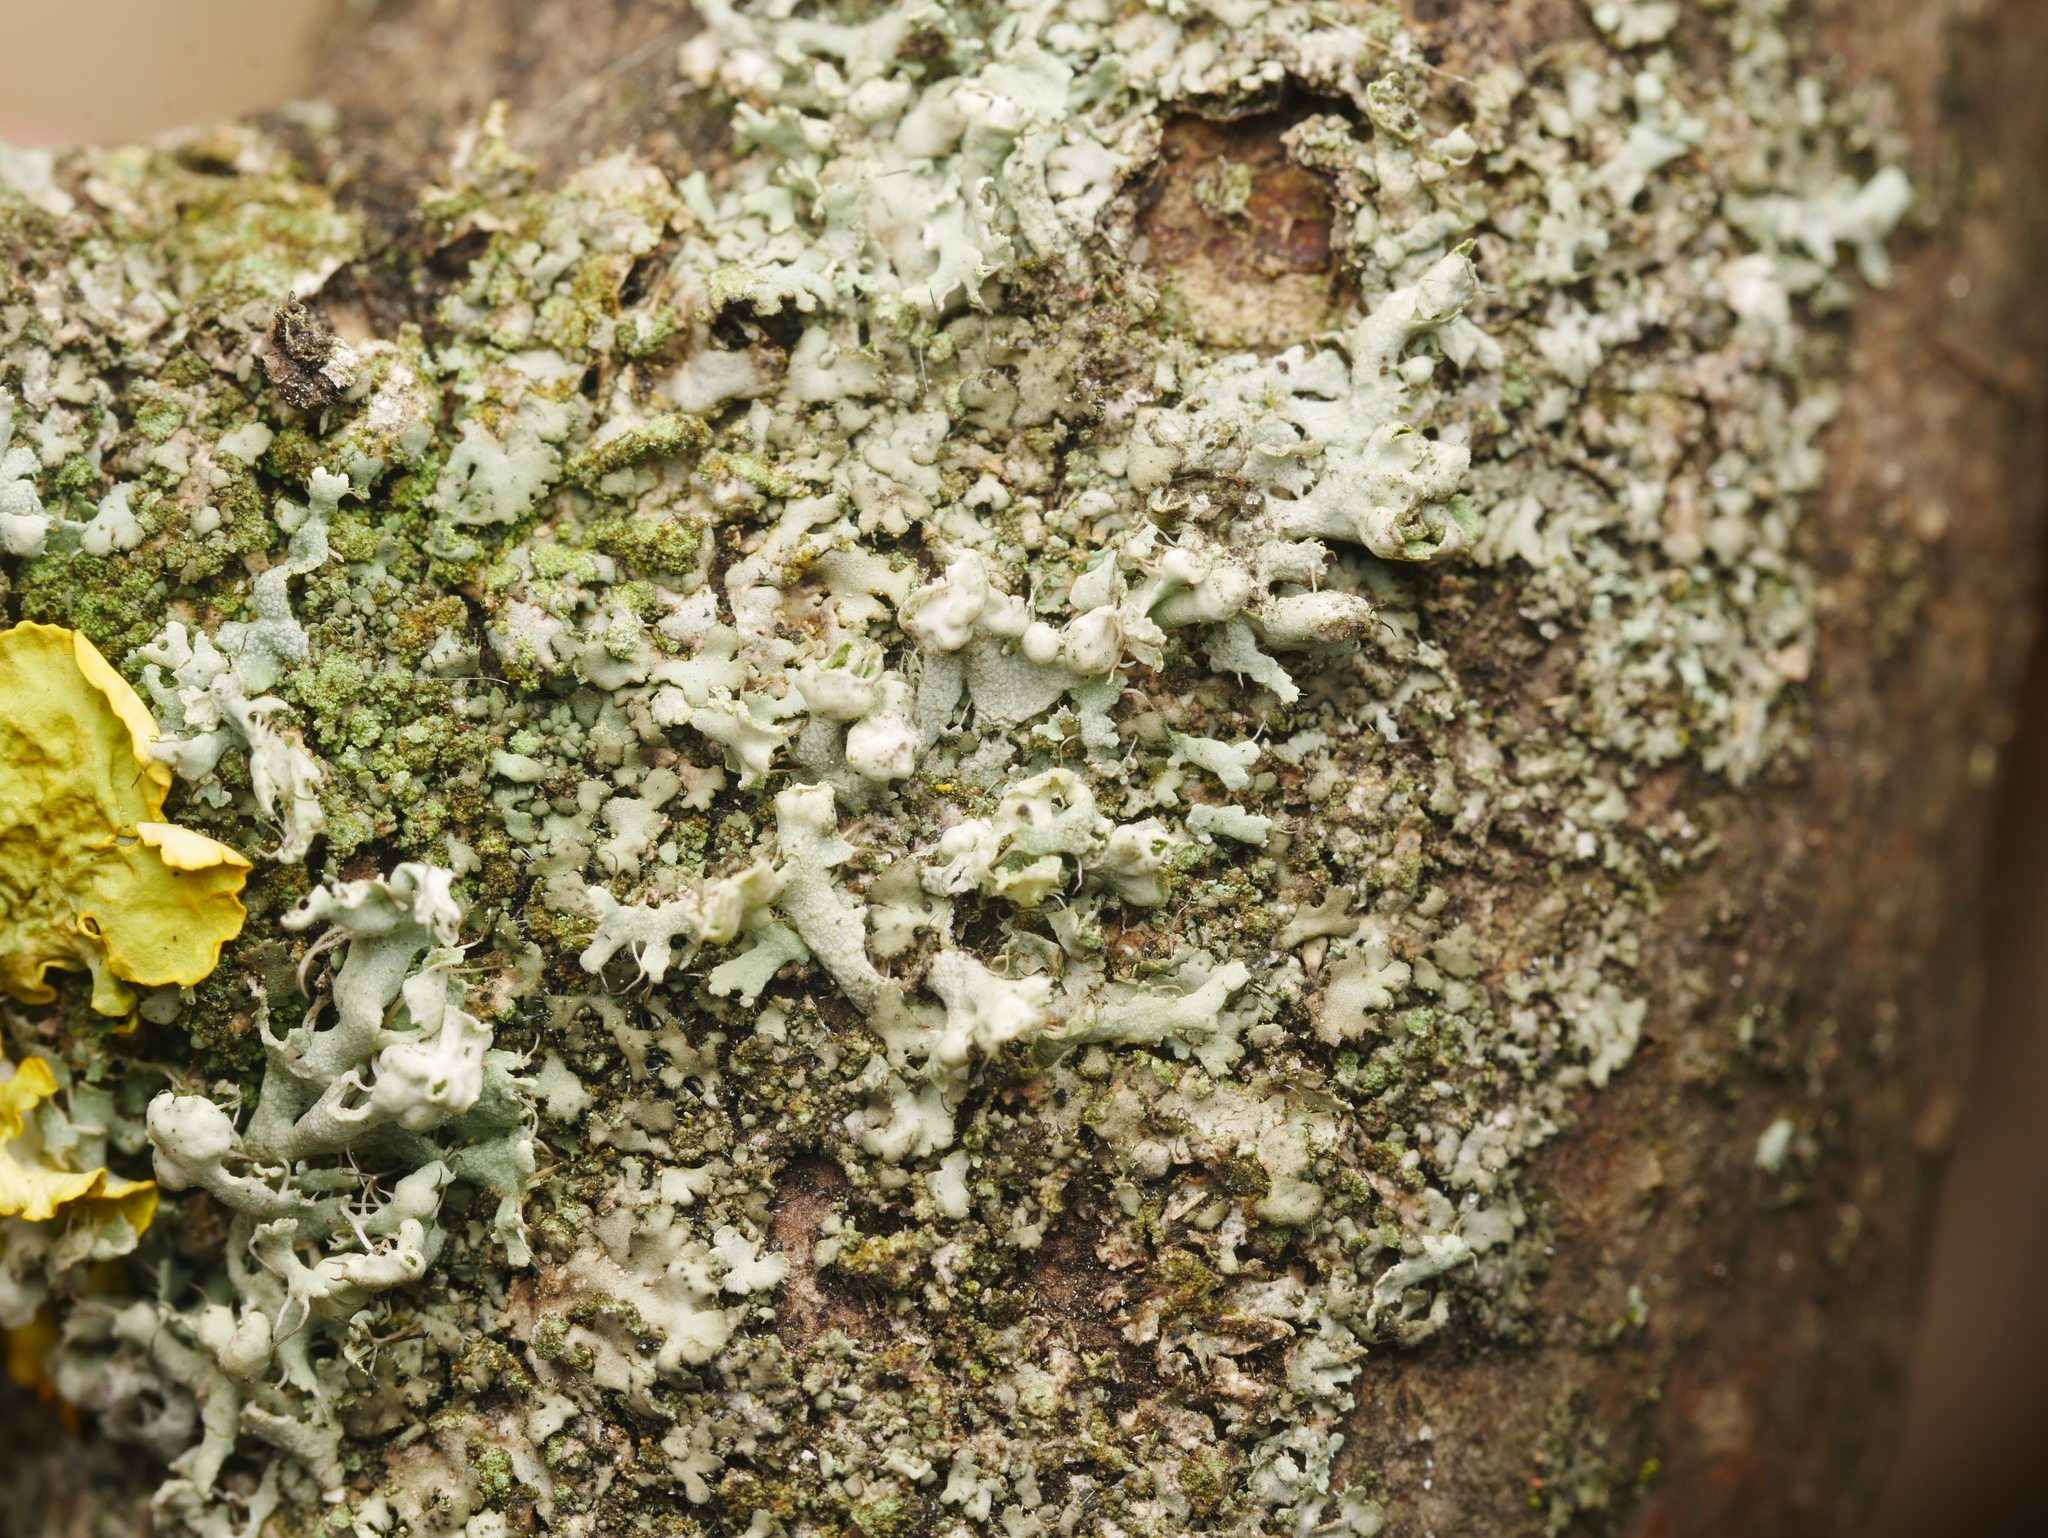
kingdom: Fungi
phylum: Ascomycota
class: Lecanoromycetes
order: Caliciales
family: Physciaceae
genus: Physcia
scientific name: Physcia adscendens
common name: Hooded rosette lichen
